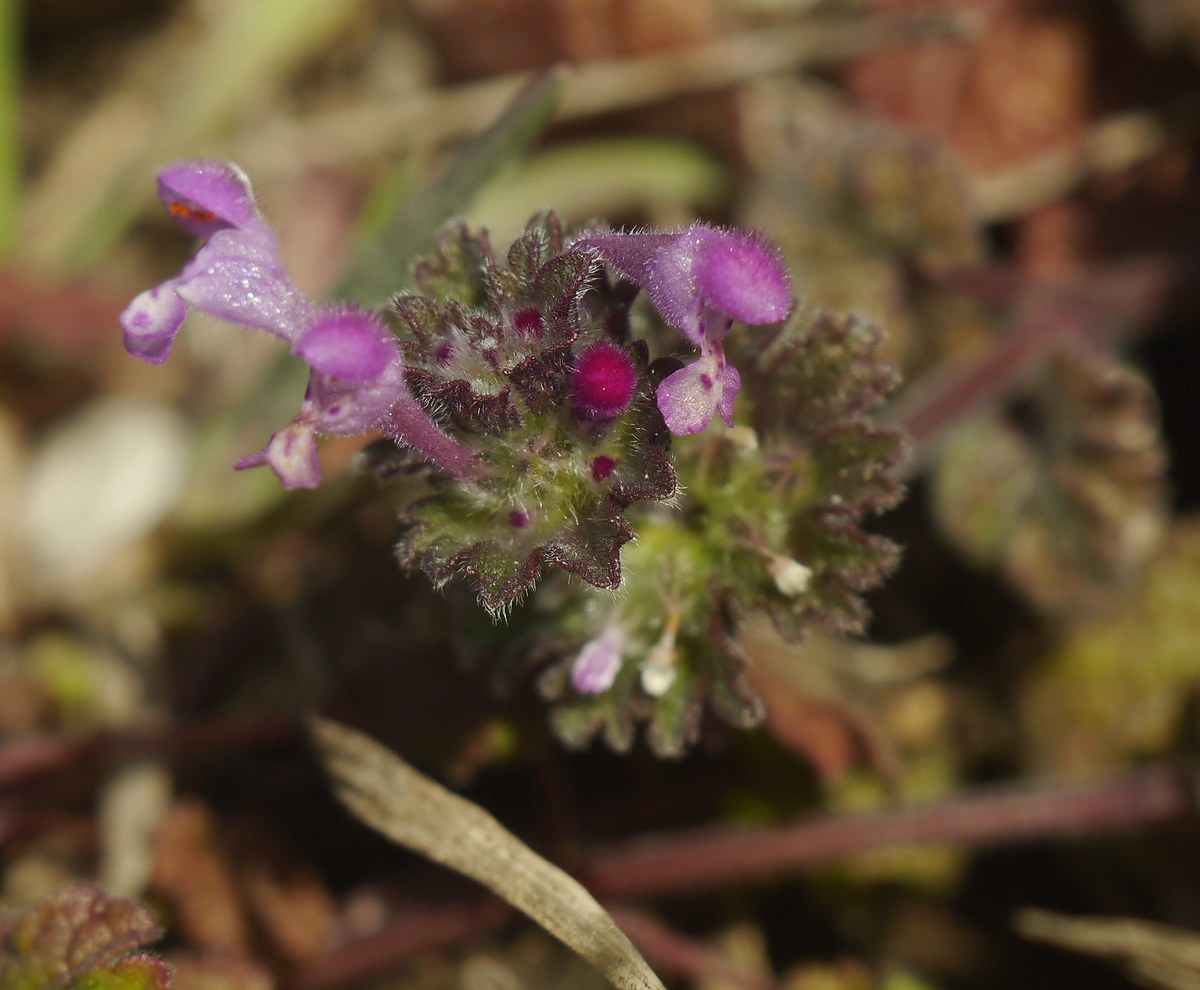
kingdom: Plantae
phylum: Tracheophyta
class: Magnoliopsida
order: Lamiales
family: Lamiaceae
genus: Lamium
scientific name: Lamium amplexicaule
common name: Henbit dead-nettle
